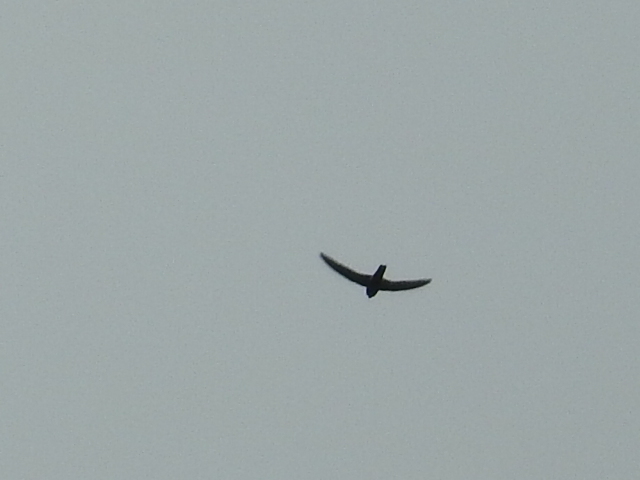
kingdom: Animalia
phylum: Chordata
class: Aves
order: Apodiformes
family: Apodidae
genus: Apus
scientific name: Apus nipalensis
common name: House swift
